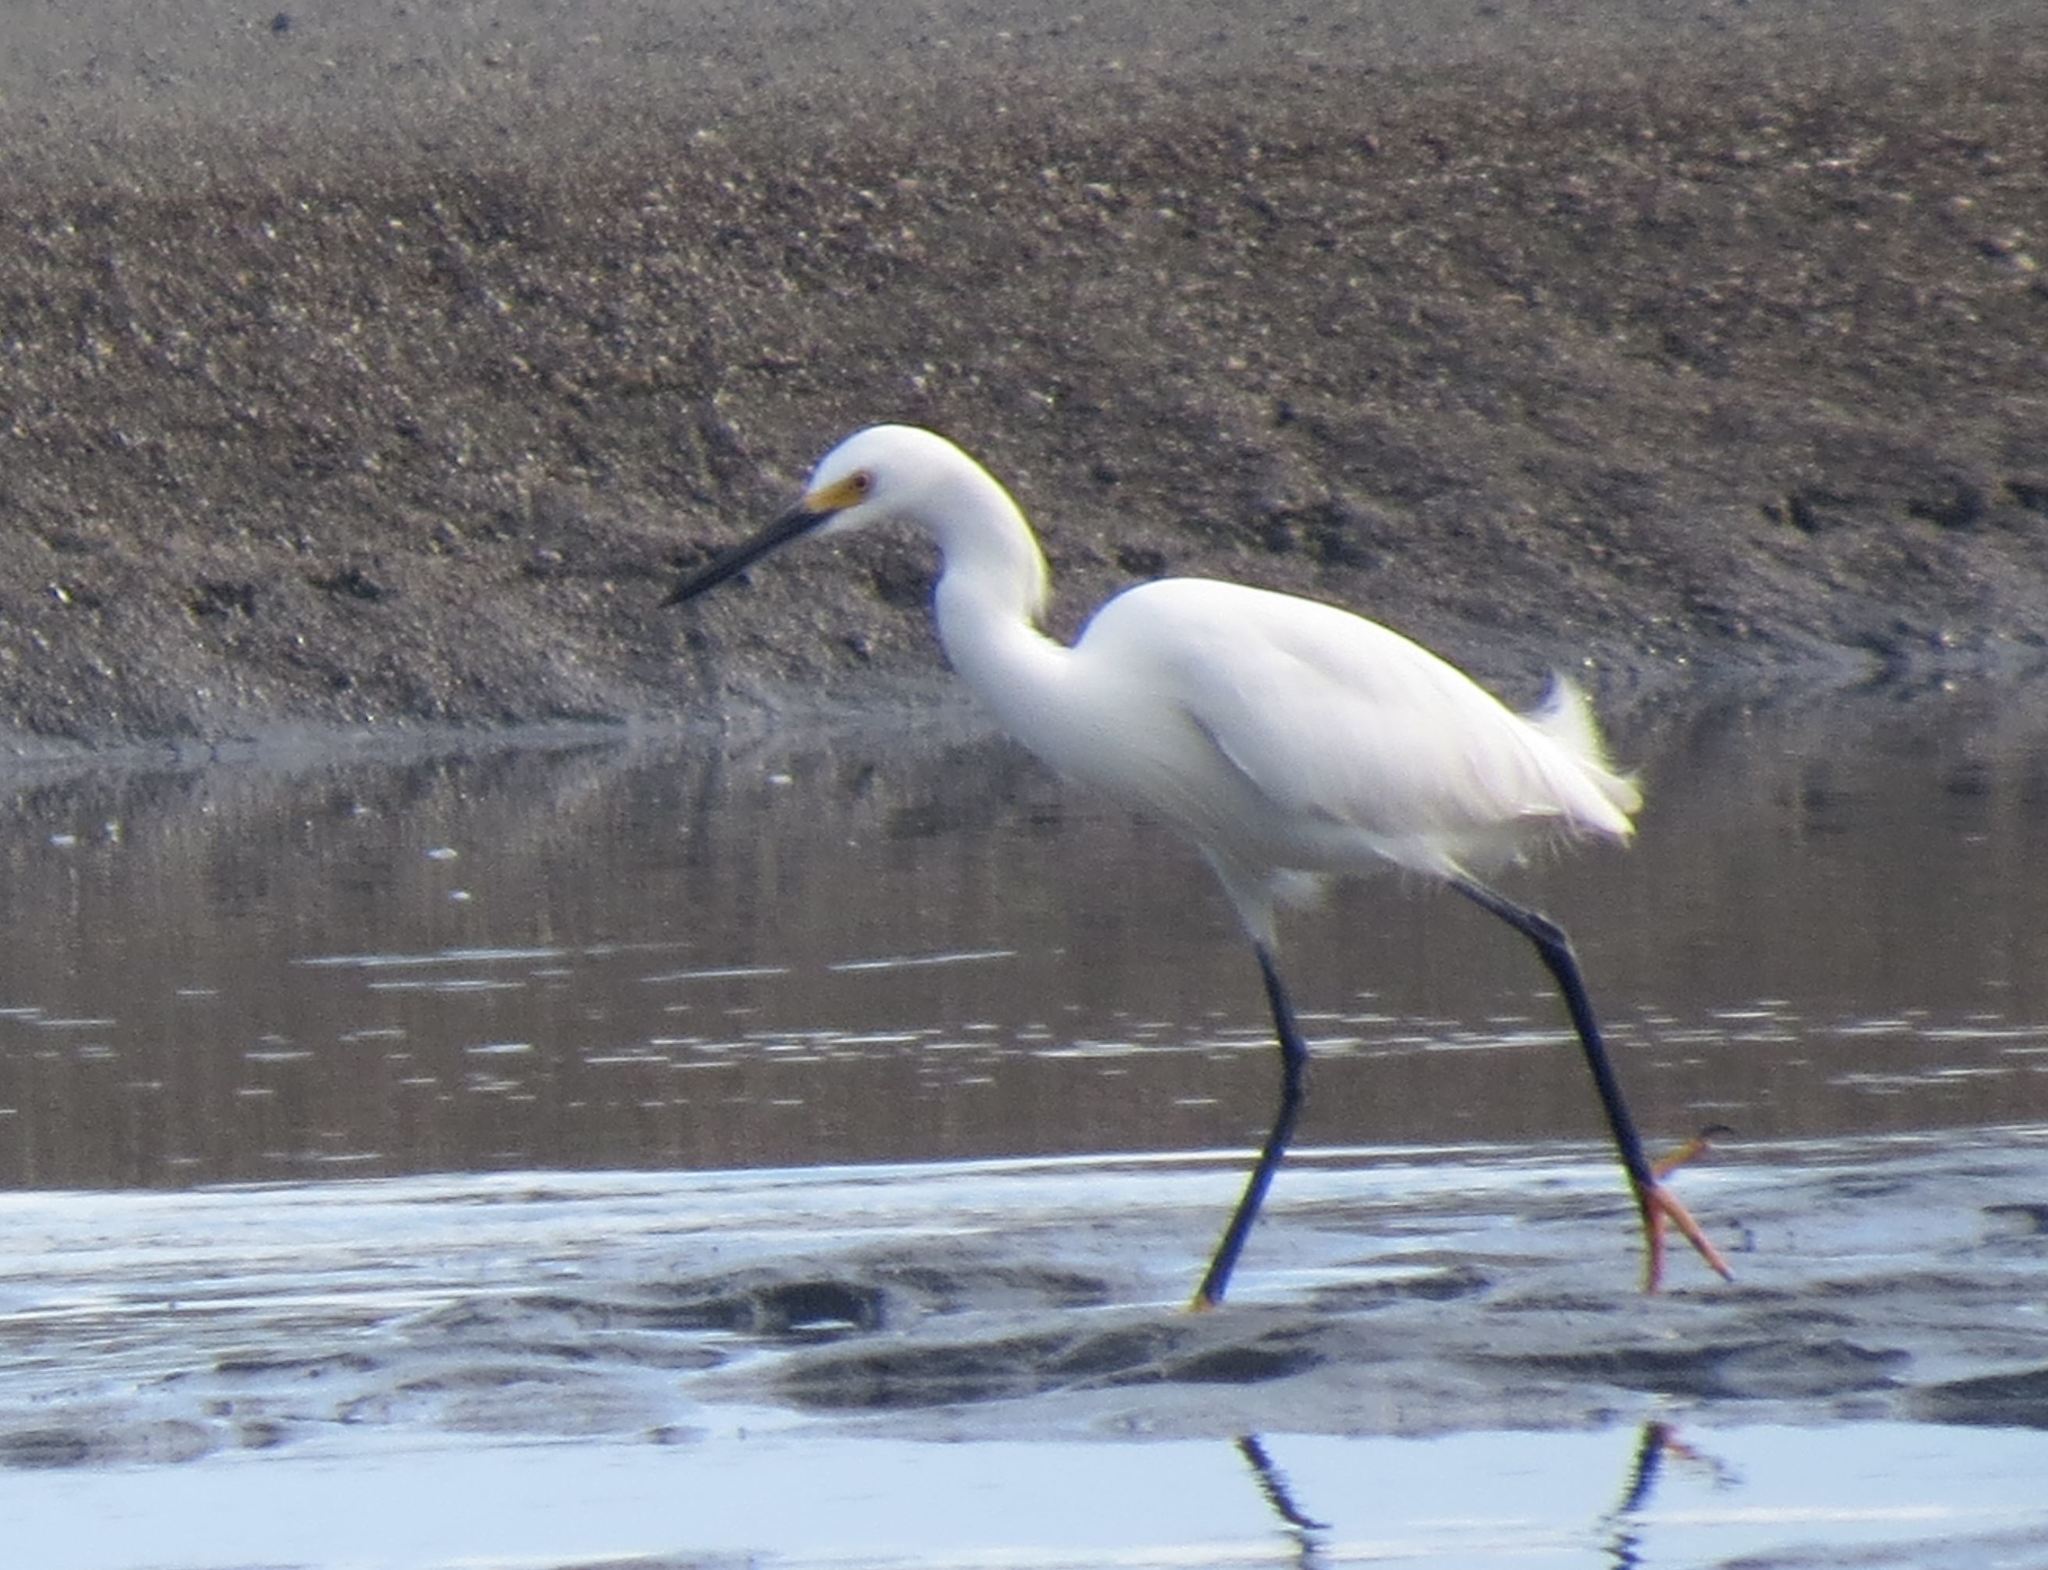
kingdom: Animalia
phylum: Chordata
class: Aves
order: Pelecaniformes
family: Ardeidae
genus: Egretta
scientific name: Egretta thula
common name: Snowy egret
